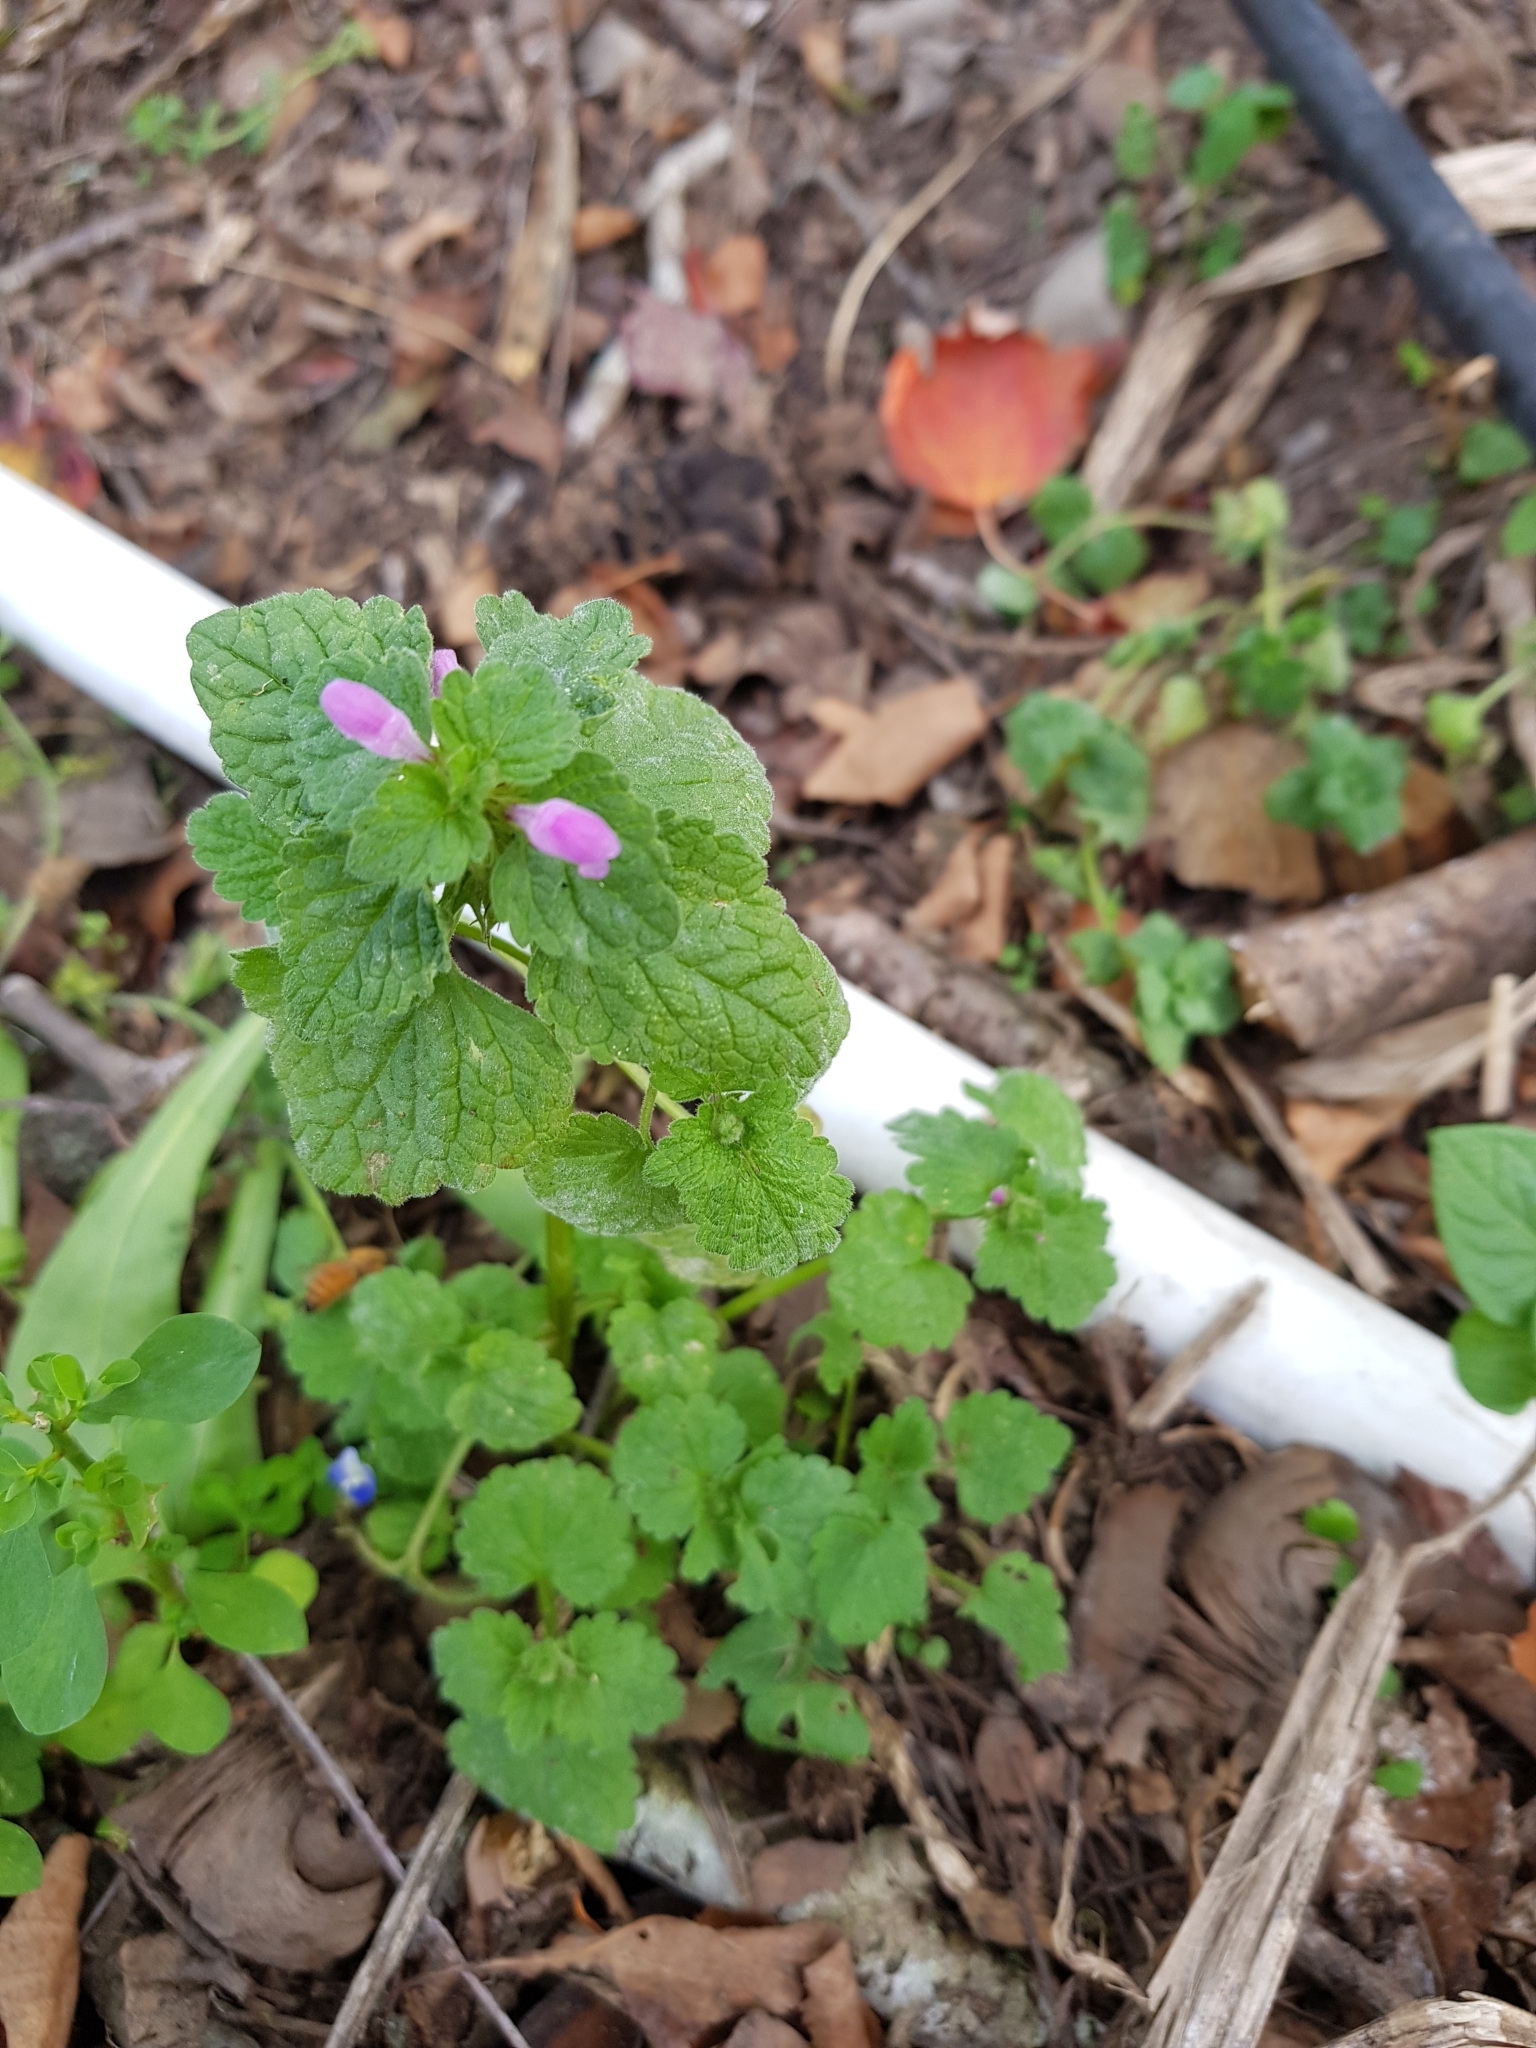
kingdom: Plantae
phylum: Tracheophyta
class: Magnoliopsida
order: Lamiales
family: Lamiaceae
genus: Lamium
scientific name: Lamium purpureum
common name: Red dead-nettle
